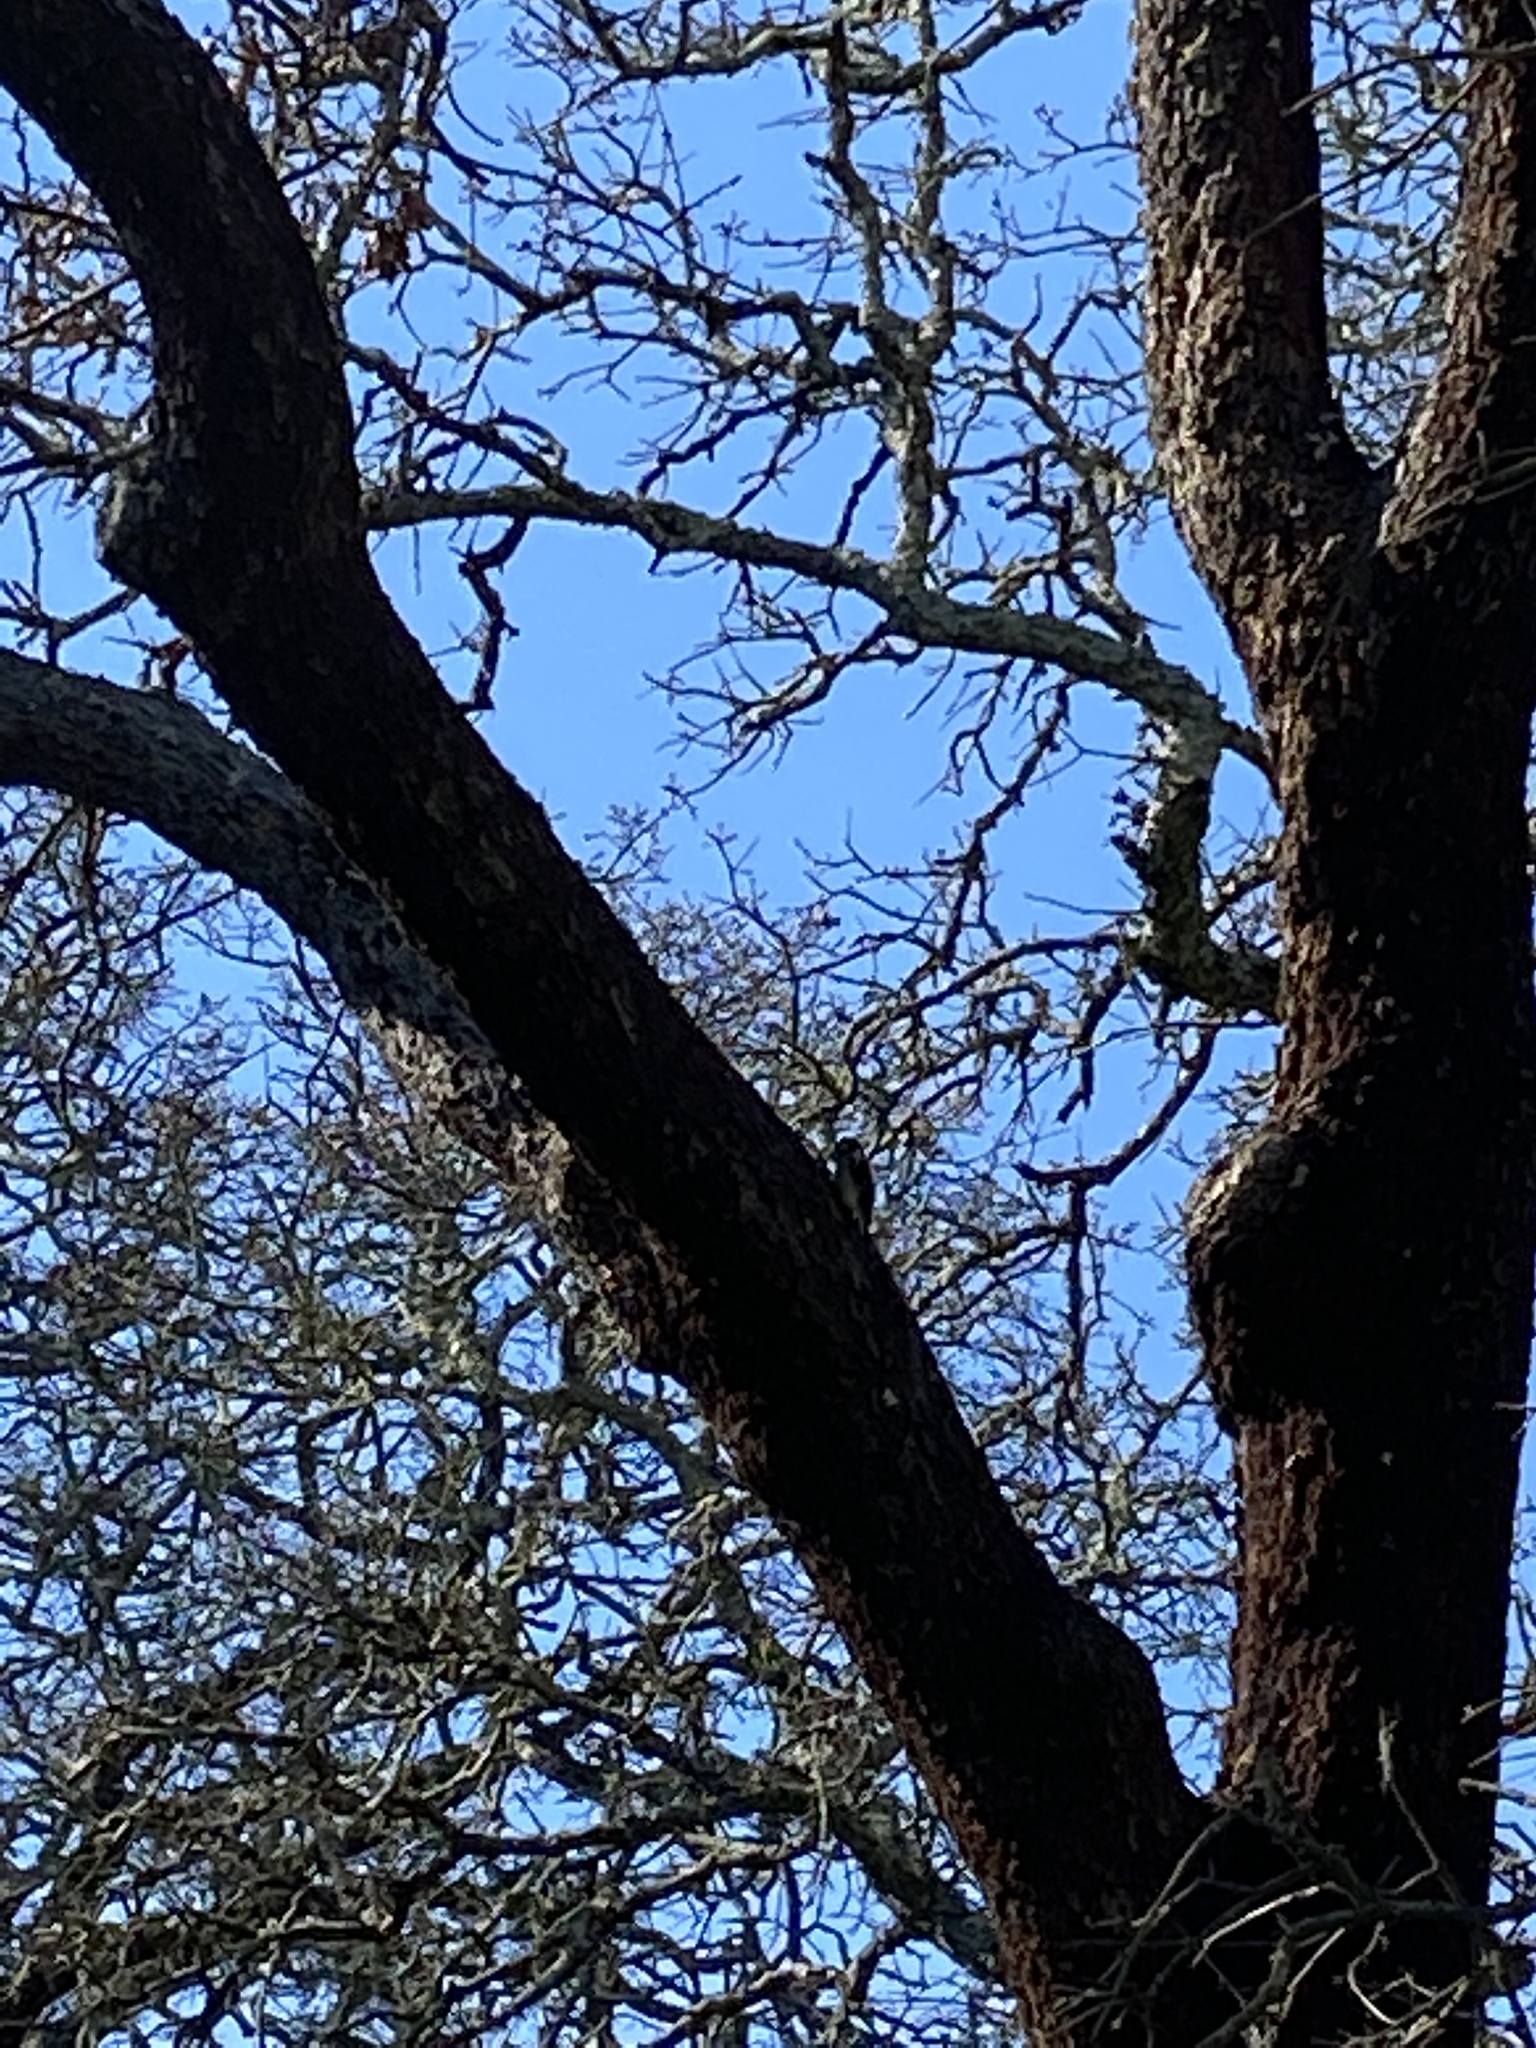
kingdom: Animalia
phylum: Chordata
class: Aves
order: Piciformes
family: Picidae
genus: Dryobates
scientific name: Dryobates
